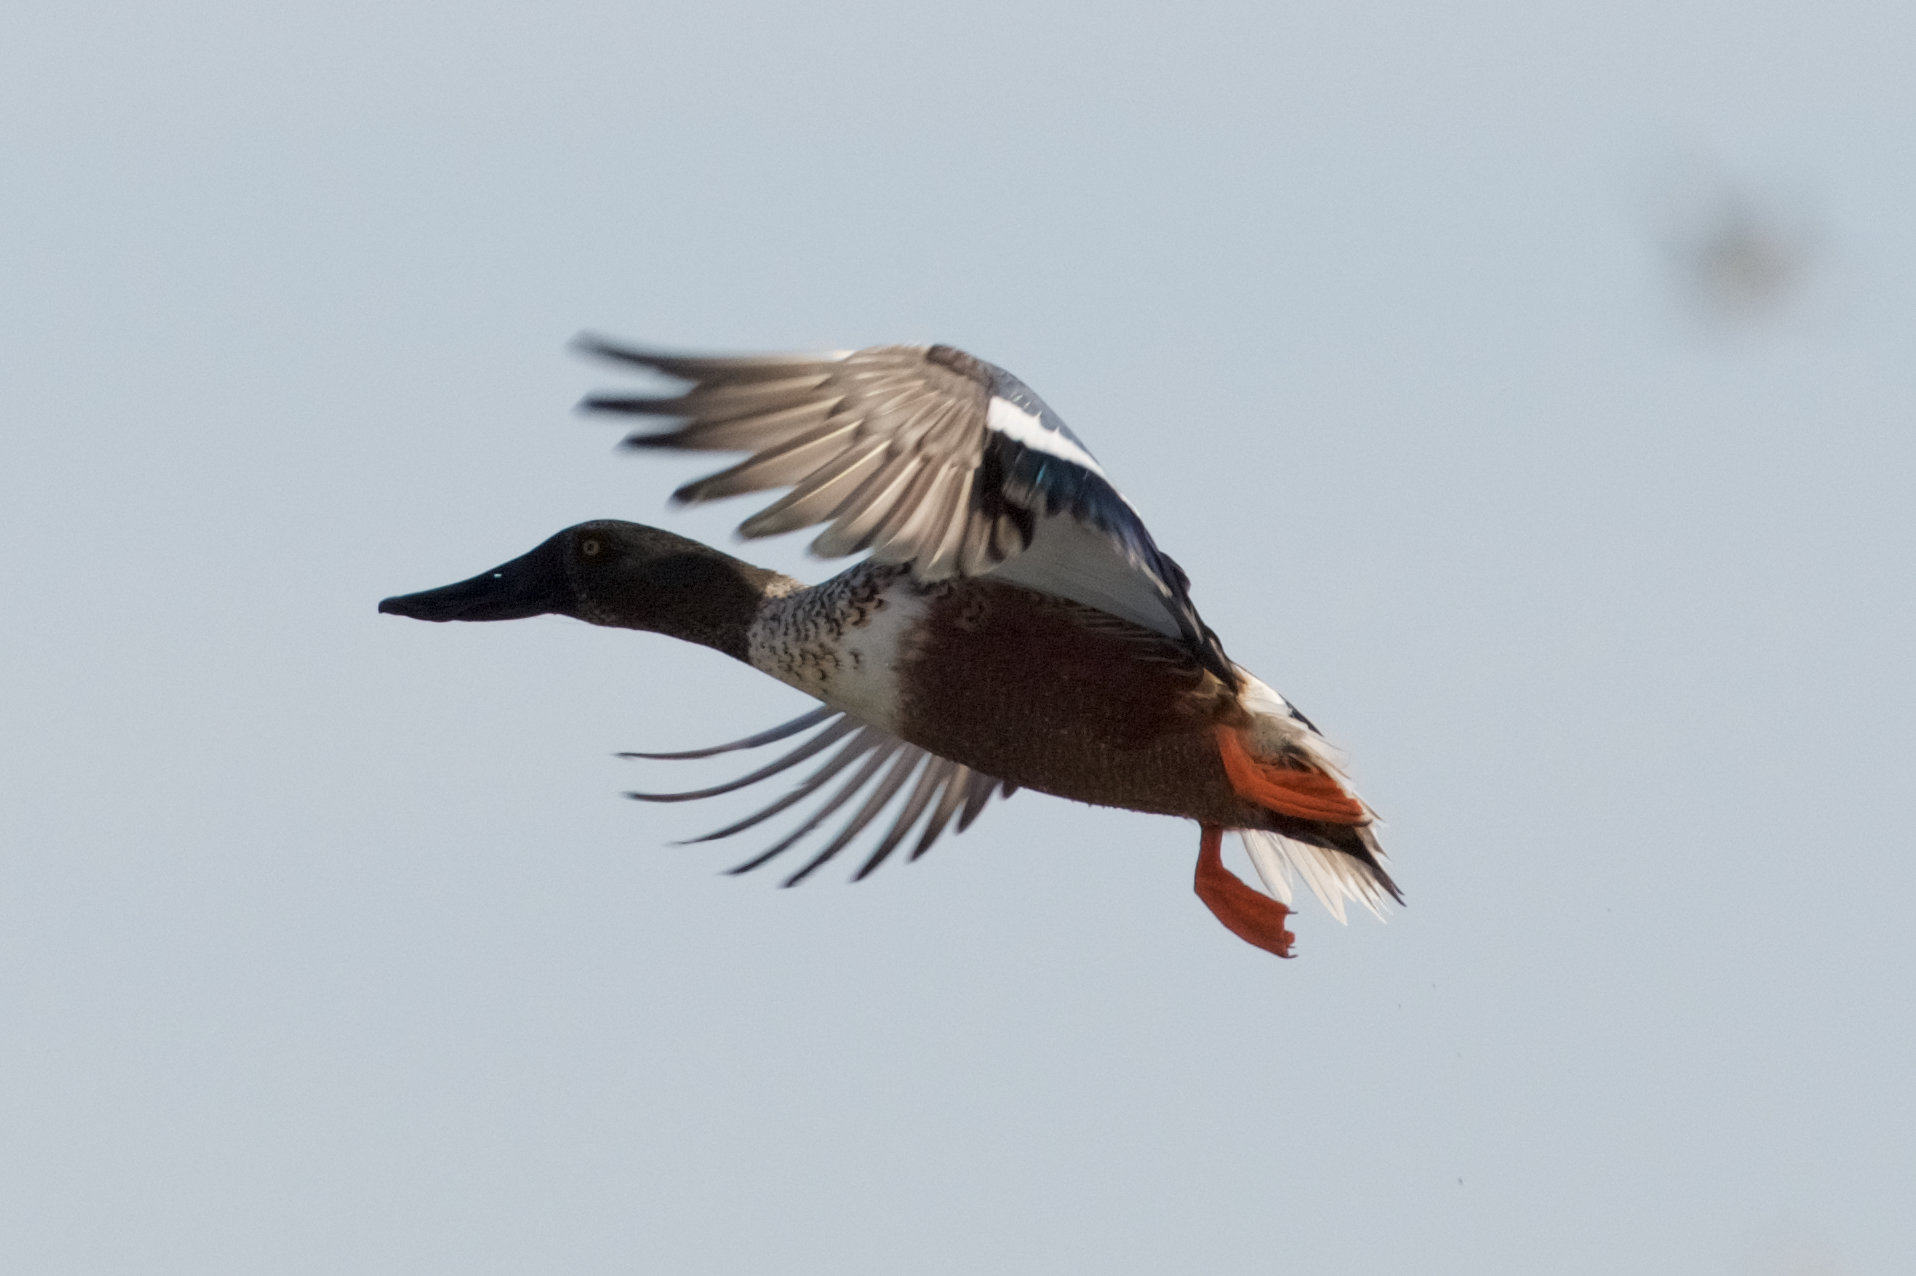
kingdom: Animalia
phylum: Chordata
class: Aves
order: Anseriformes
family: Anatidae
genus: Spatula
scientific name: Spatula clypeata
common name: Northern shoveler
